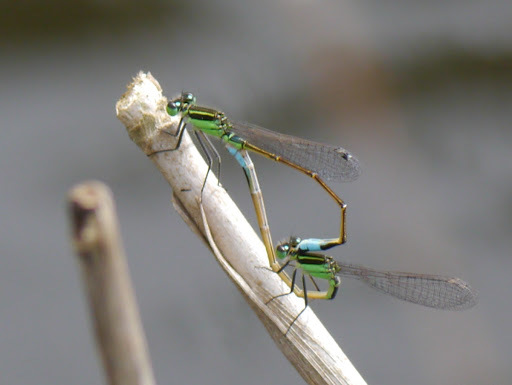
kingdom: Animalia
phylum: Arthropoda
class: Insecta
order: Odonata
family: Coenagrionidae
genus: Ischnura
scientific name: Ischnura ramburii
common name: Rambur's forktail
